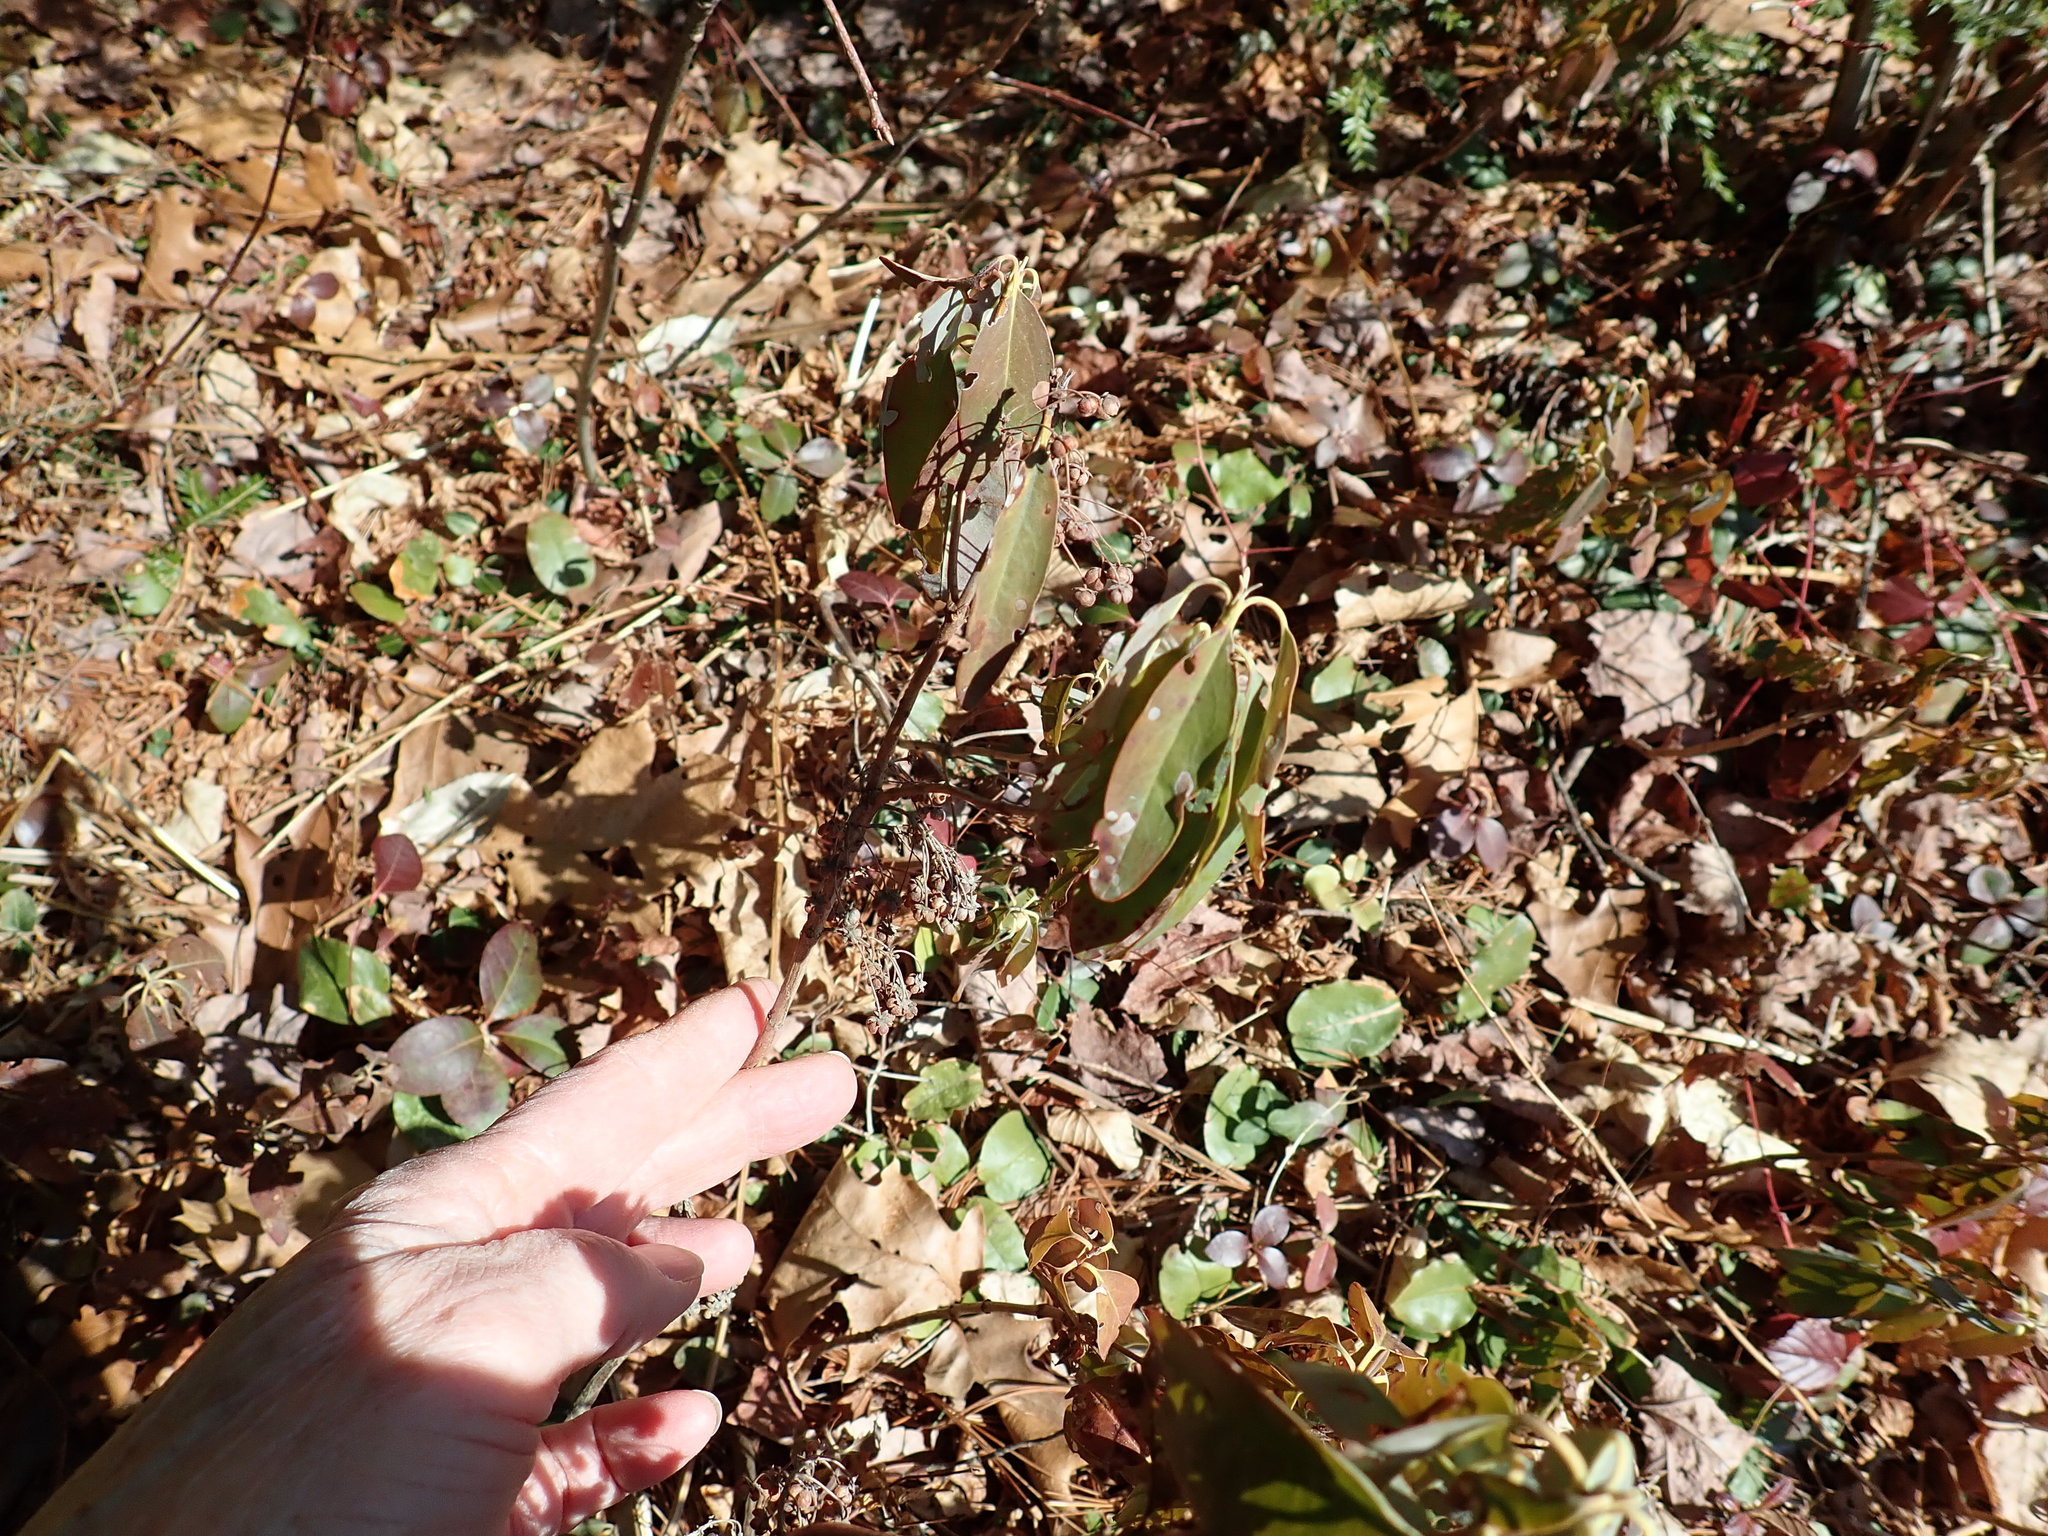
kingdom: Plantae
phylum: Tracheophyta
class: Magnoliopsida
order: Ericales
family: Ericaceae
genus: Kalmia
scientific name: Kalmia angustifolia
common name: Sheep-laurel
